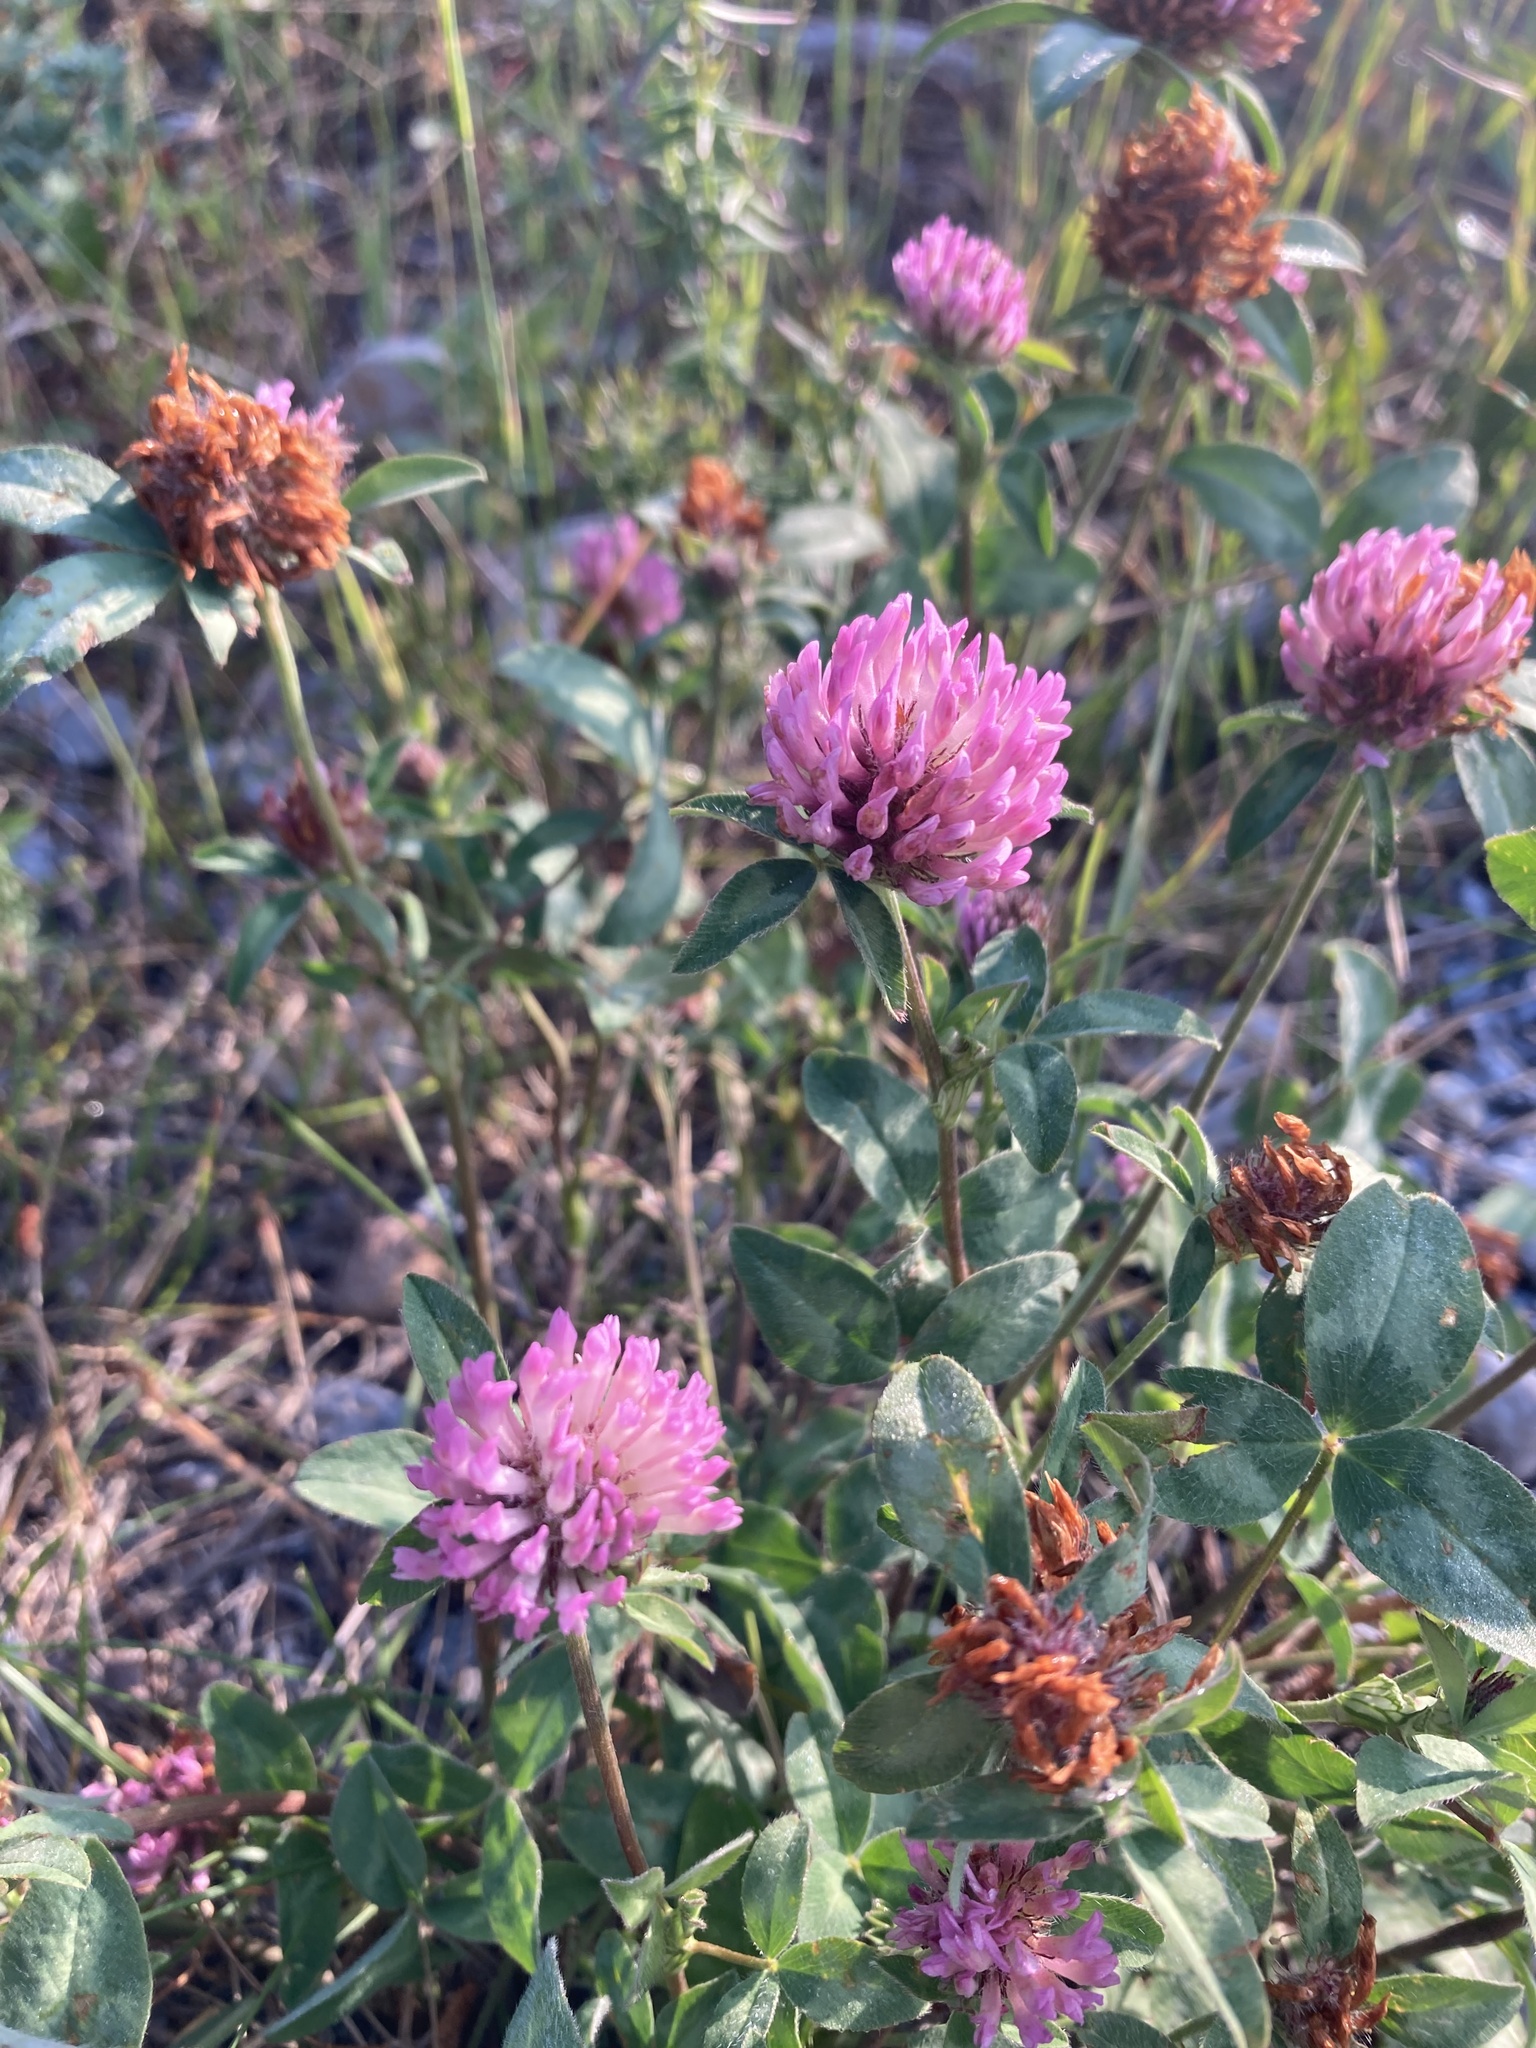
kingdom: Plantae
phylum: Tracheophyta
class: Magnoliopsida
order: Fabales
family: Fabaceae
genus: Trifolium
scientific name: Trifolium pratense
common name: Red clover
